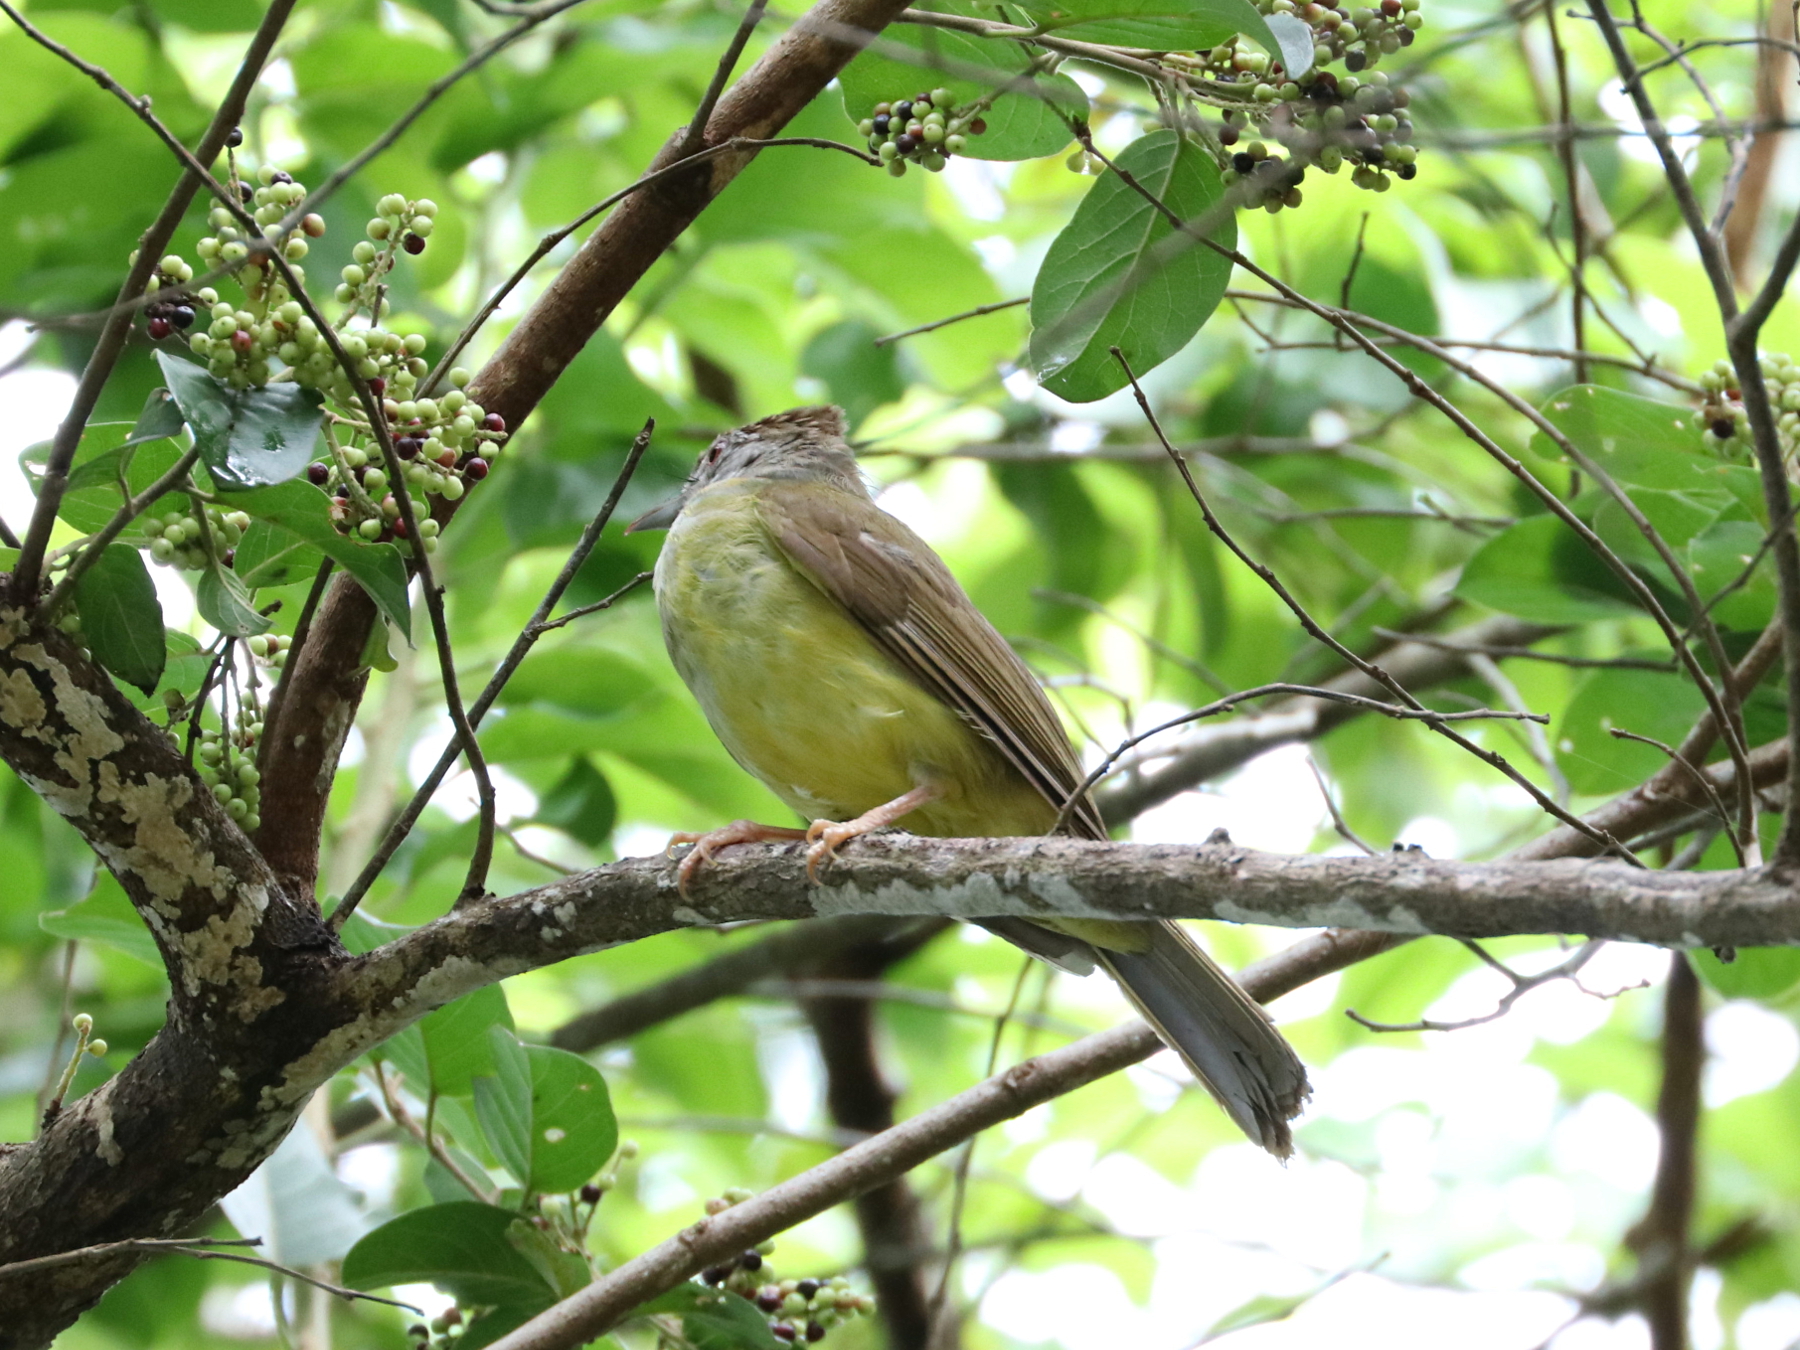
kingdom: Animalia
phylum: Chordata
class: Aves
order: Passeriformes
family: Pycnonotidae
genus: Alophoixus
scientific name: Alophoixus frater
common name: Palawan bulbul
